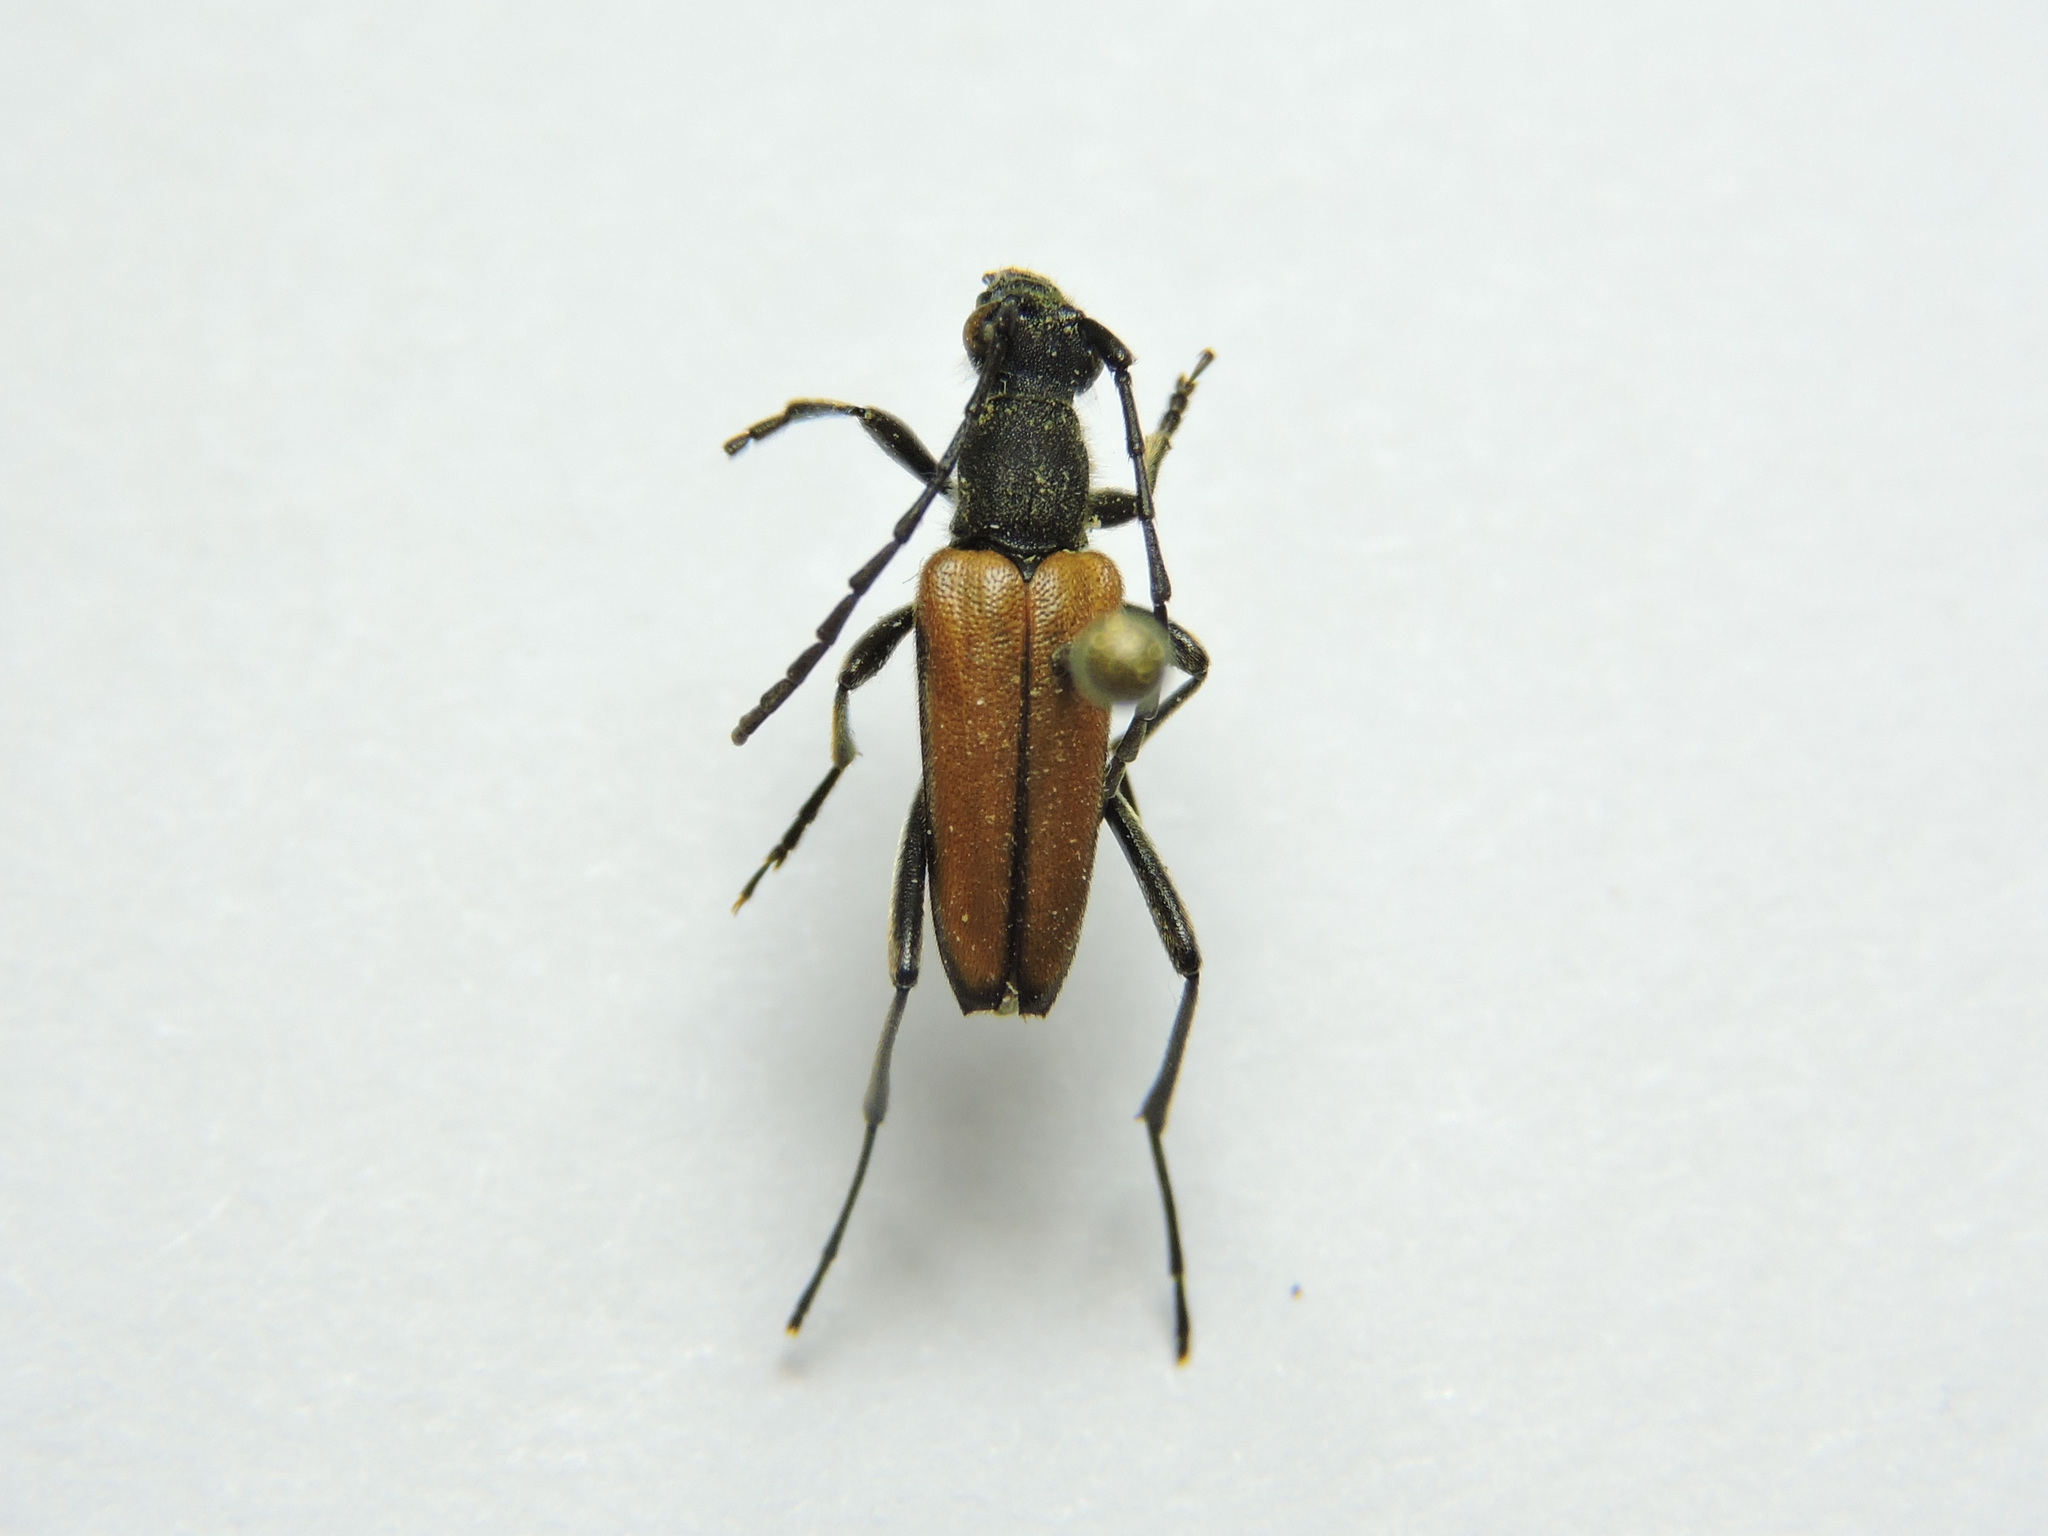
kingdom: Animalia
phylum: Arthropoda
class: Insecta
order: Coleoptera
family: Cerambycidae
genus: Anastrangalia
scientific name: Anastrangalia reyi
